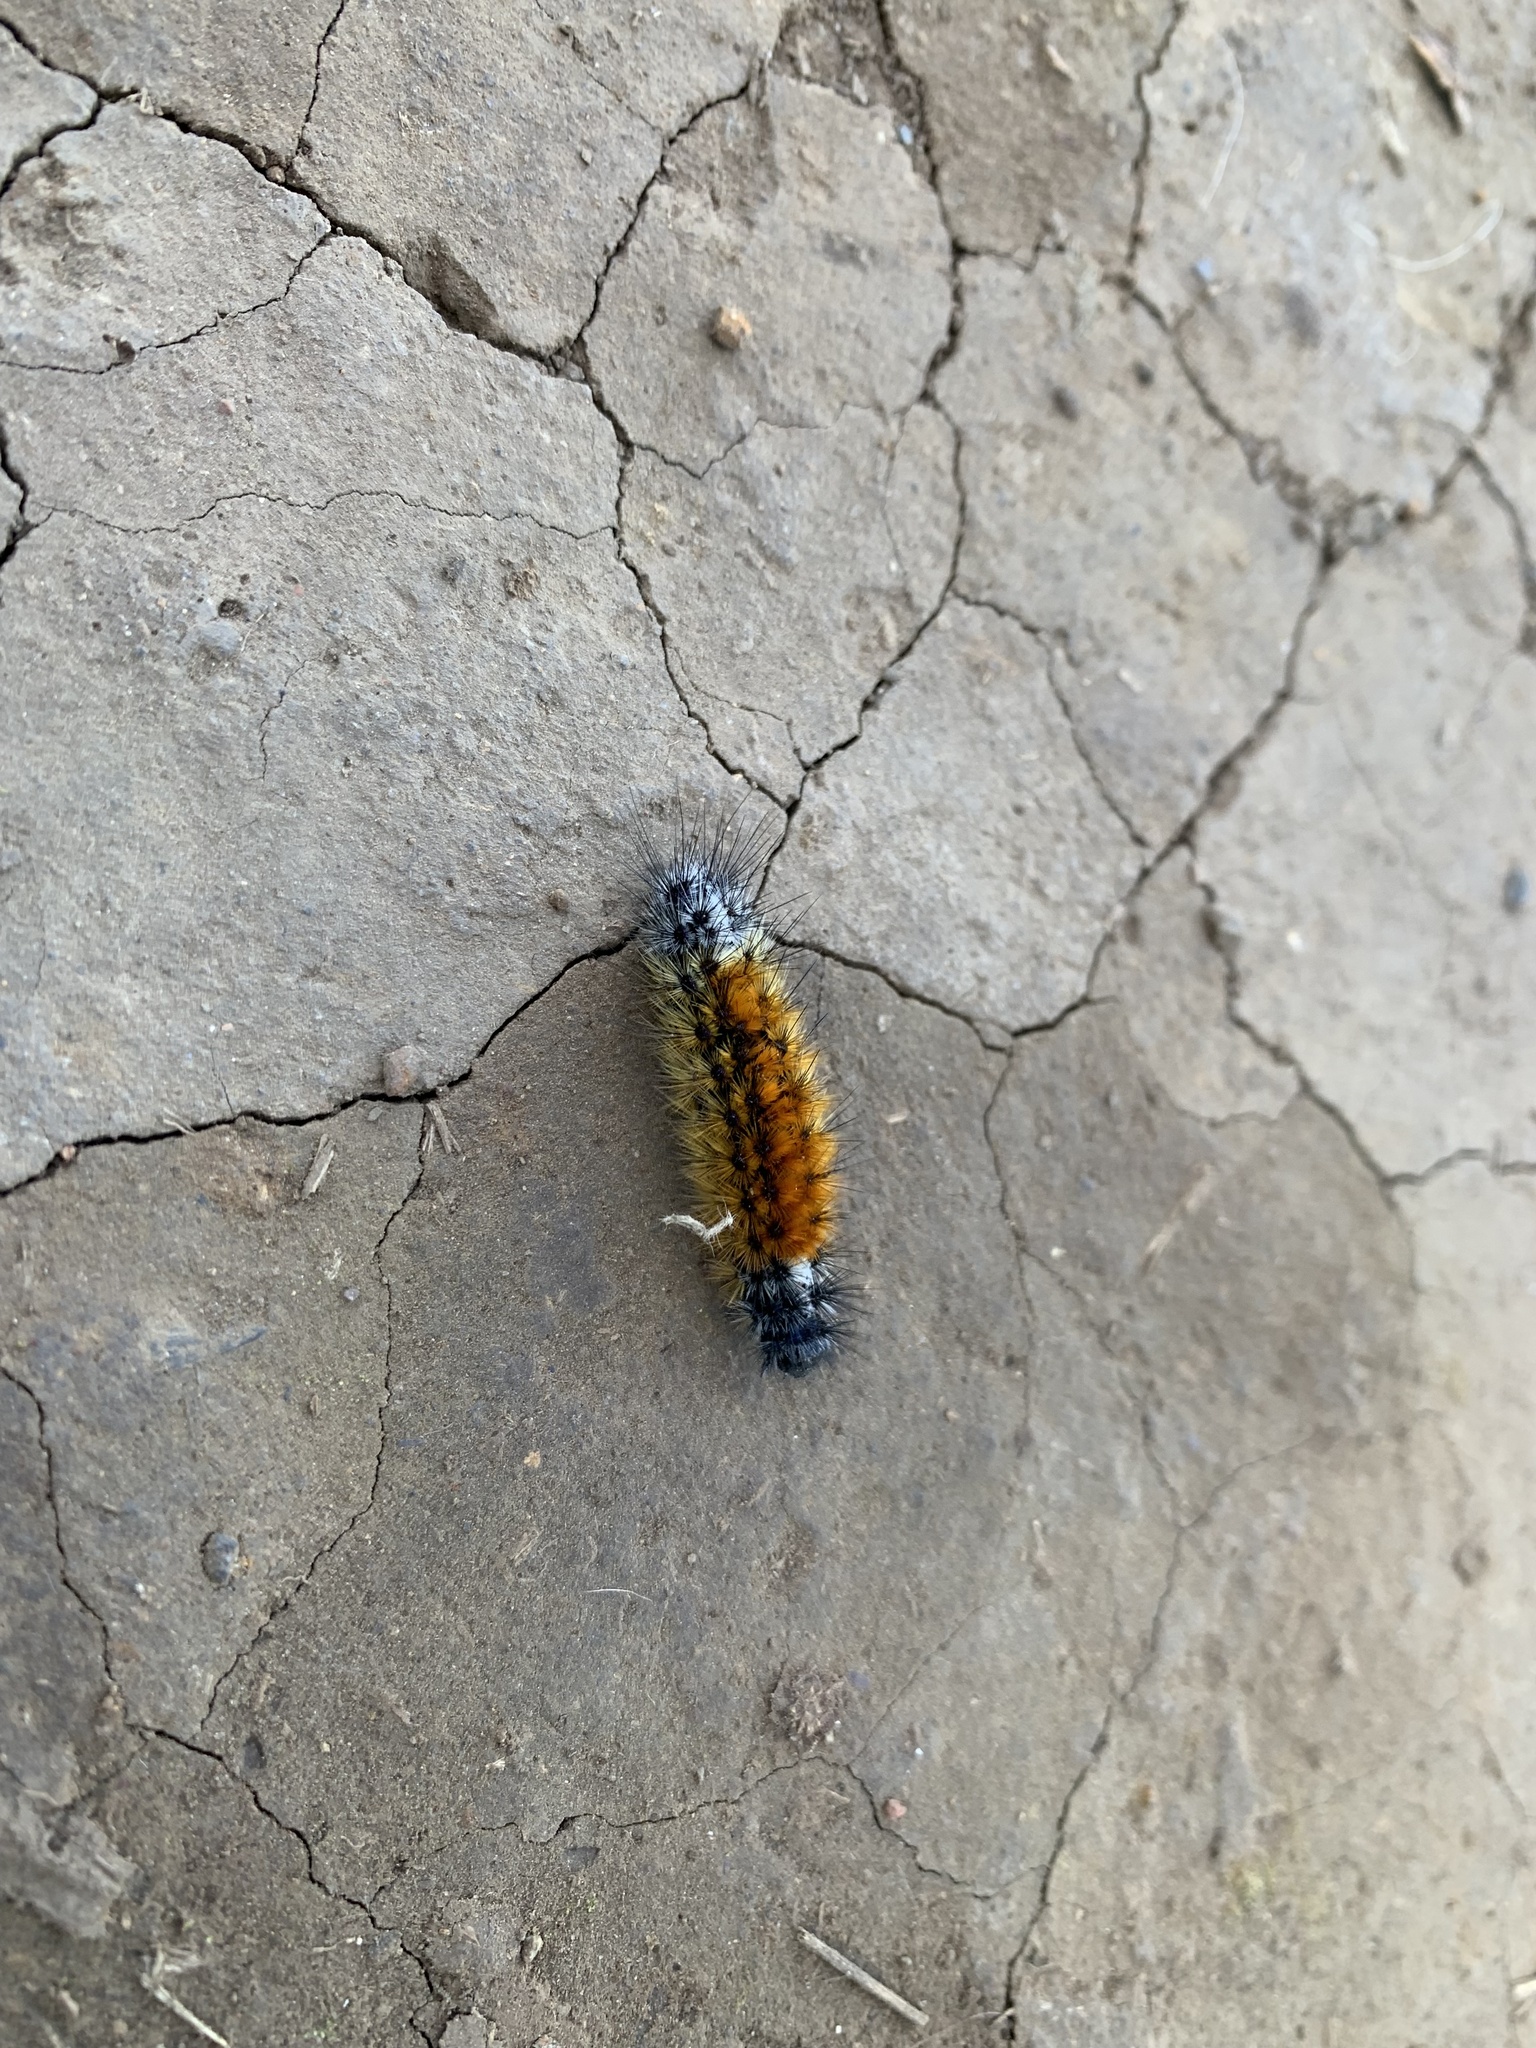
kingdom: Animalia
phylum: Arthropoda
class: Insecta
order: Lepidoptera
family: Erebidae
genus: Chilesia
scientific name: Chilesia
